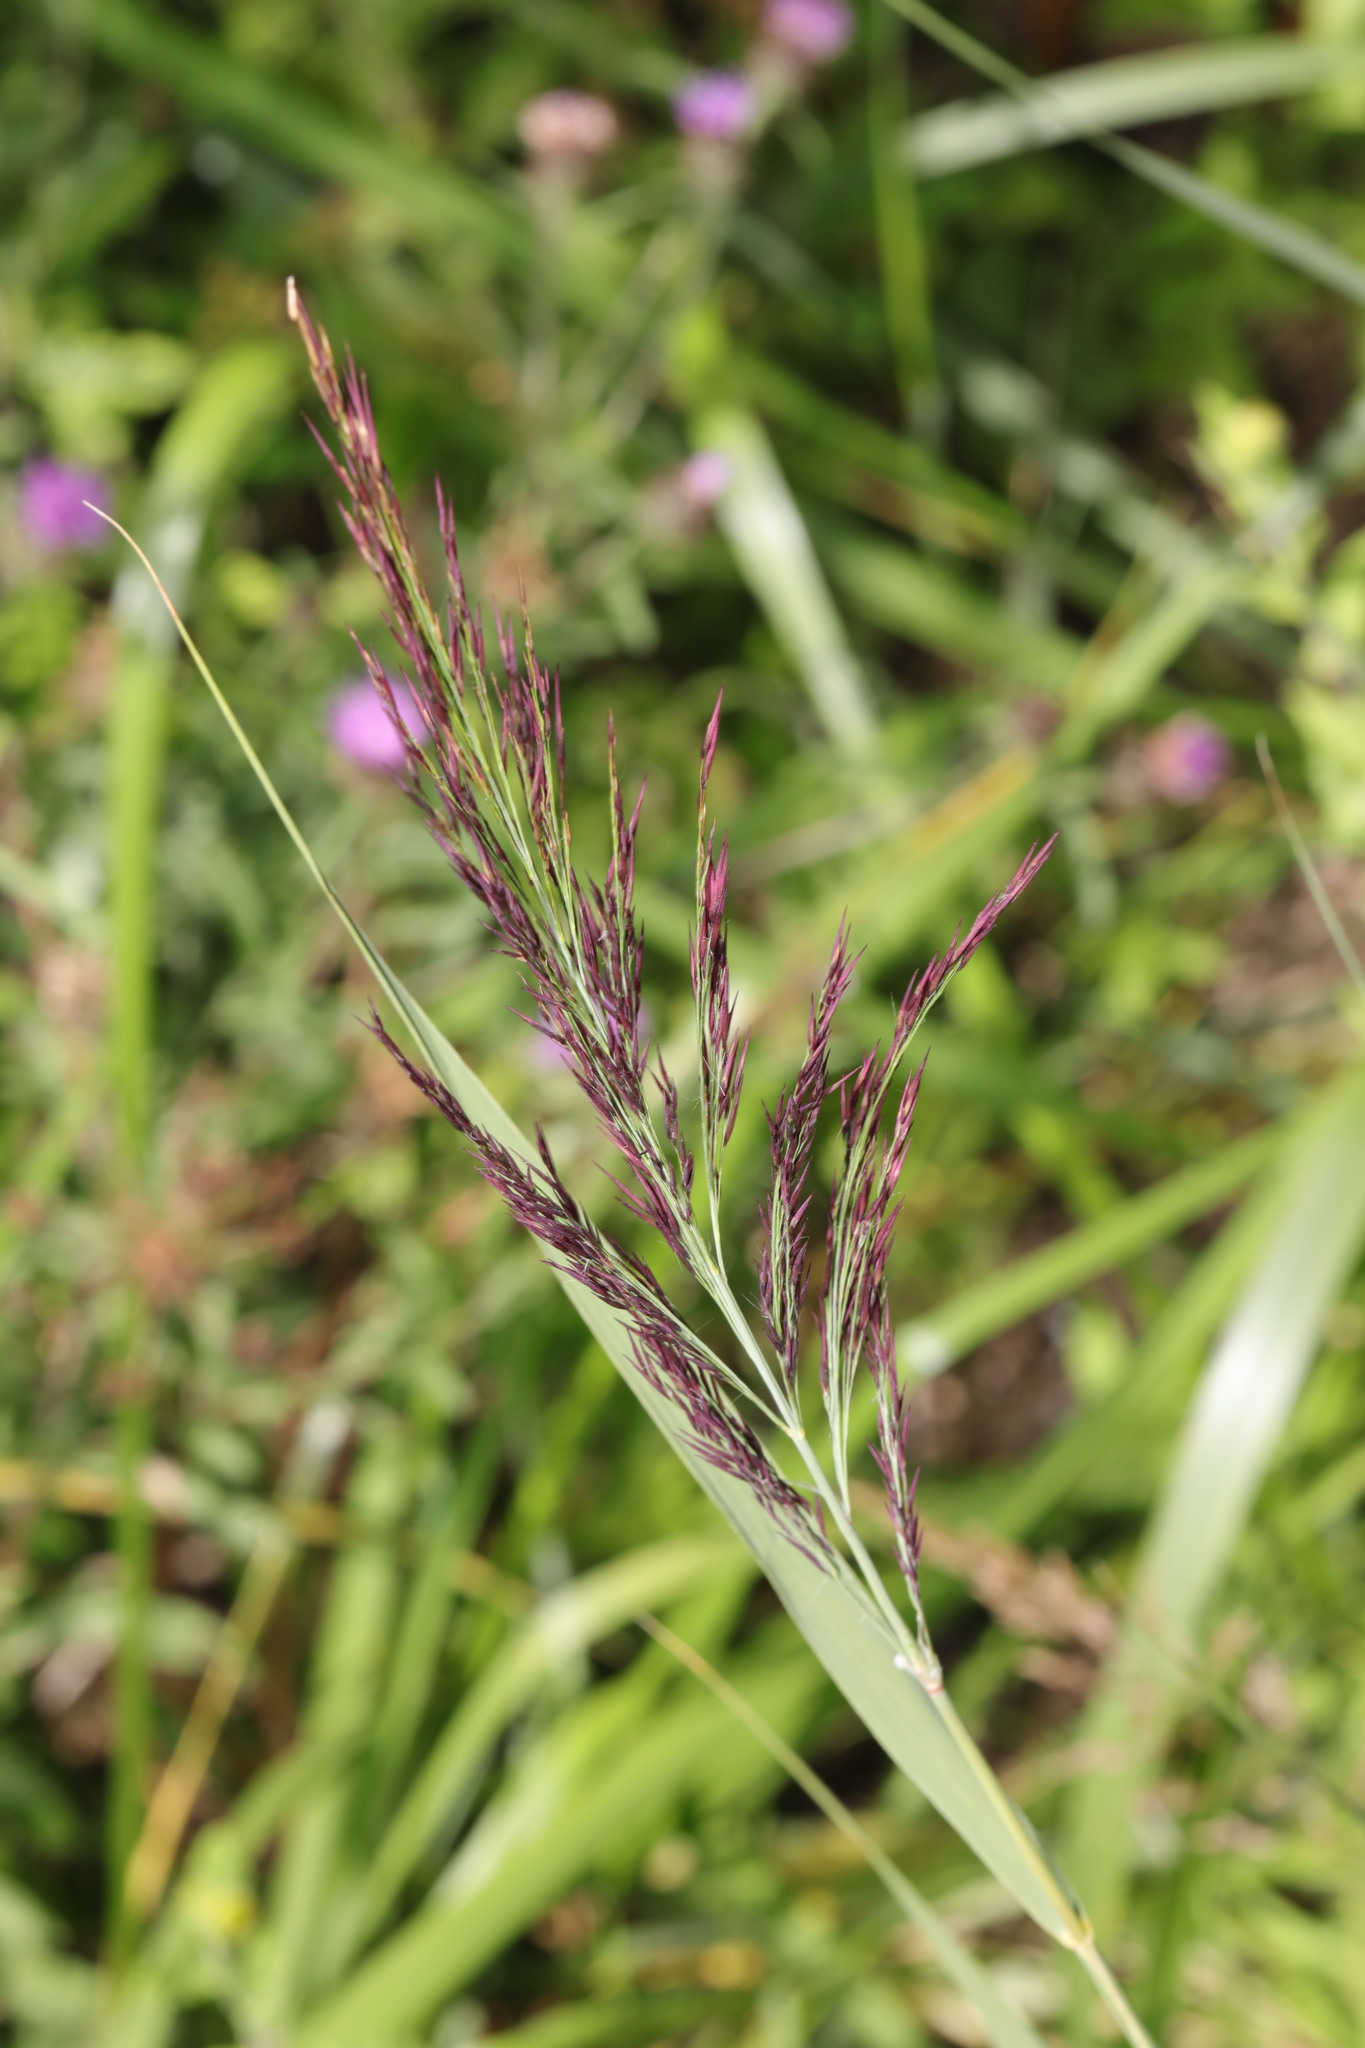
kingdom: Plantae
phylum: Tracheophyta
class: Liliopsida
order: Poales
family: Poaceae
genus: Phragmites
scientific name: Phragmites australis
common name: Common reed
